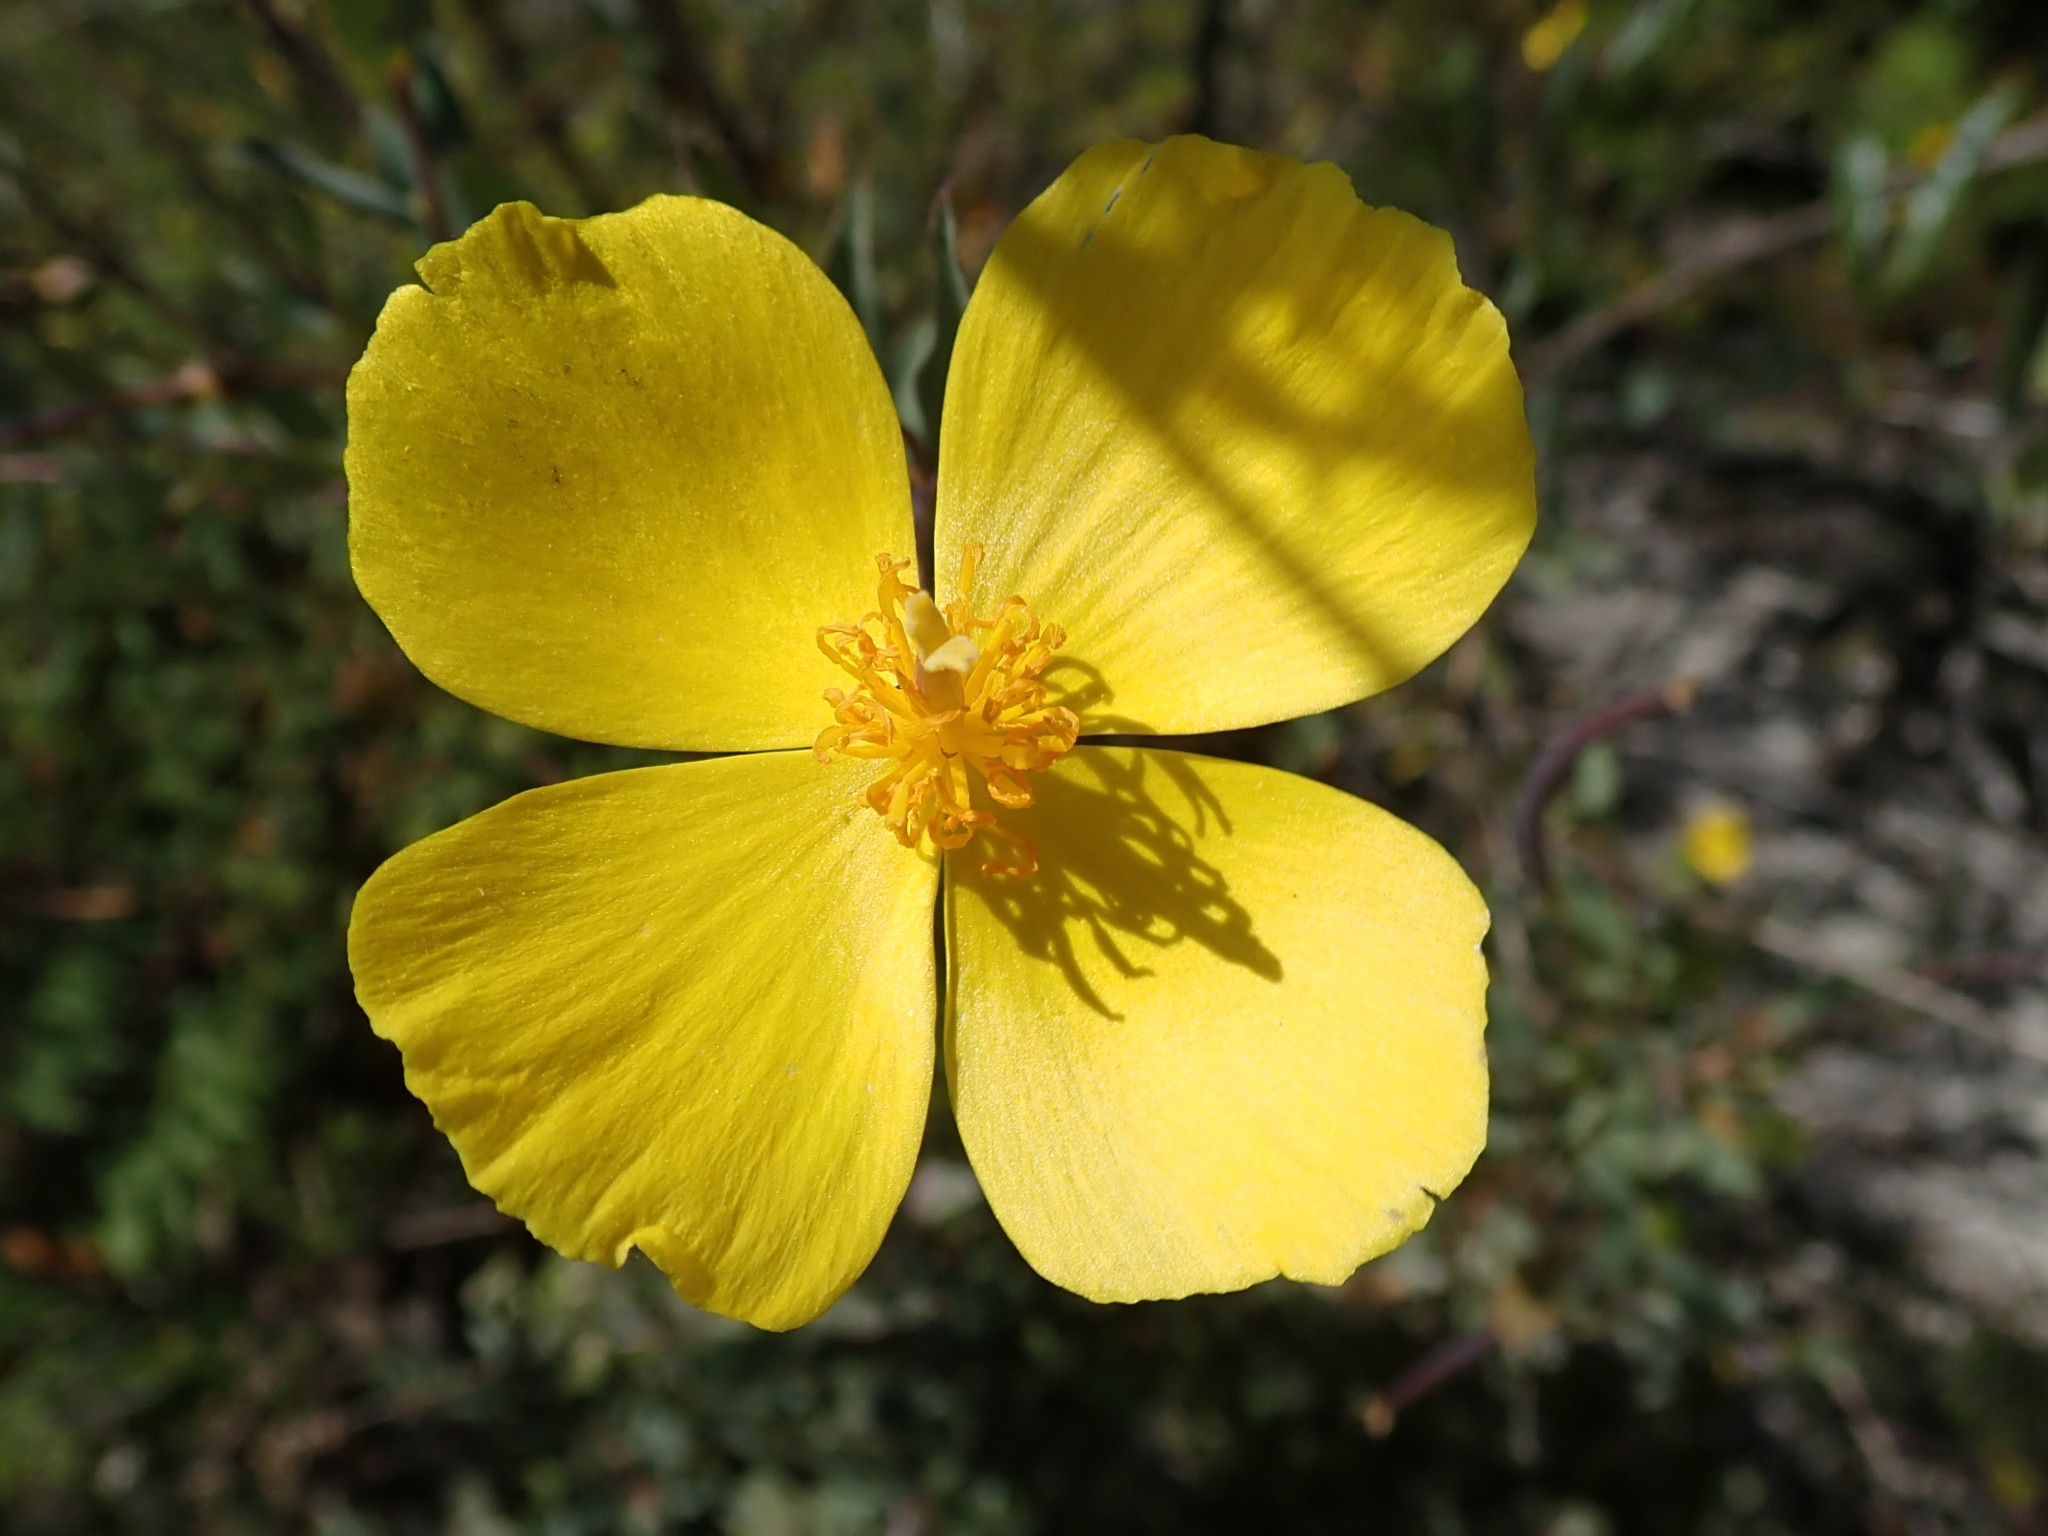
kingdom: Plantae
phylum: Tracheophyta
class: Magnoliopsida
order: Ranunculales
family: Papaveraceae
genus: Dendromecon
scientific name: Dendromecon rigida
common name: Tree poppy
